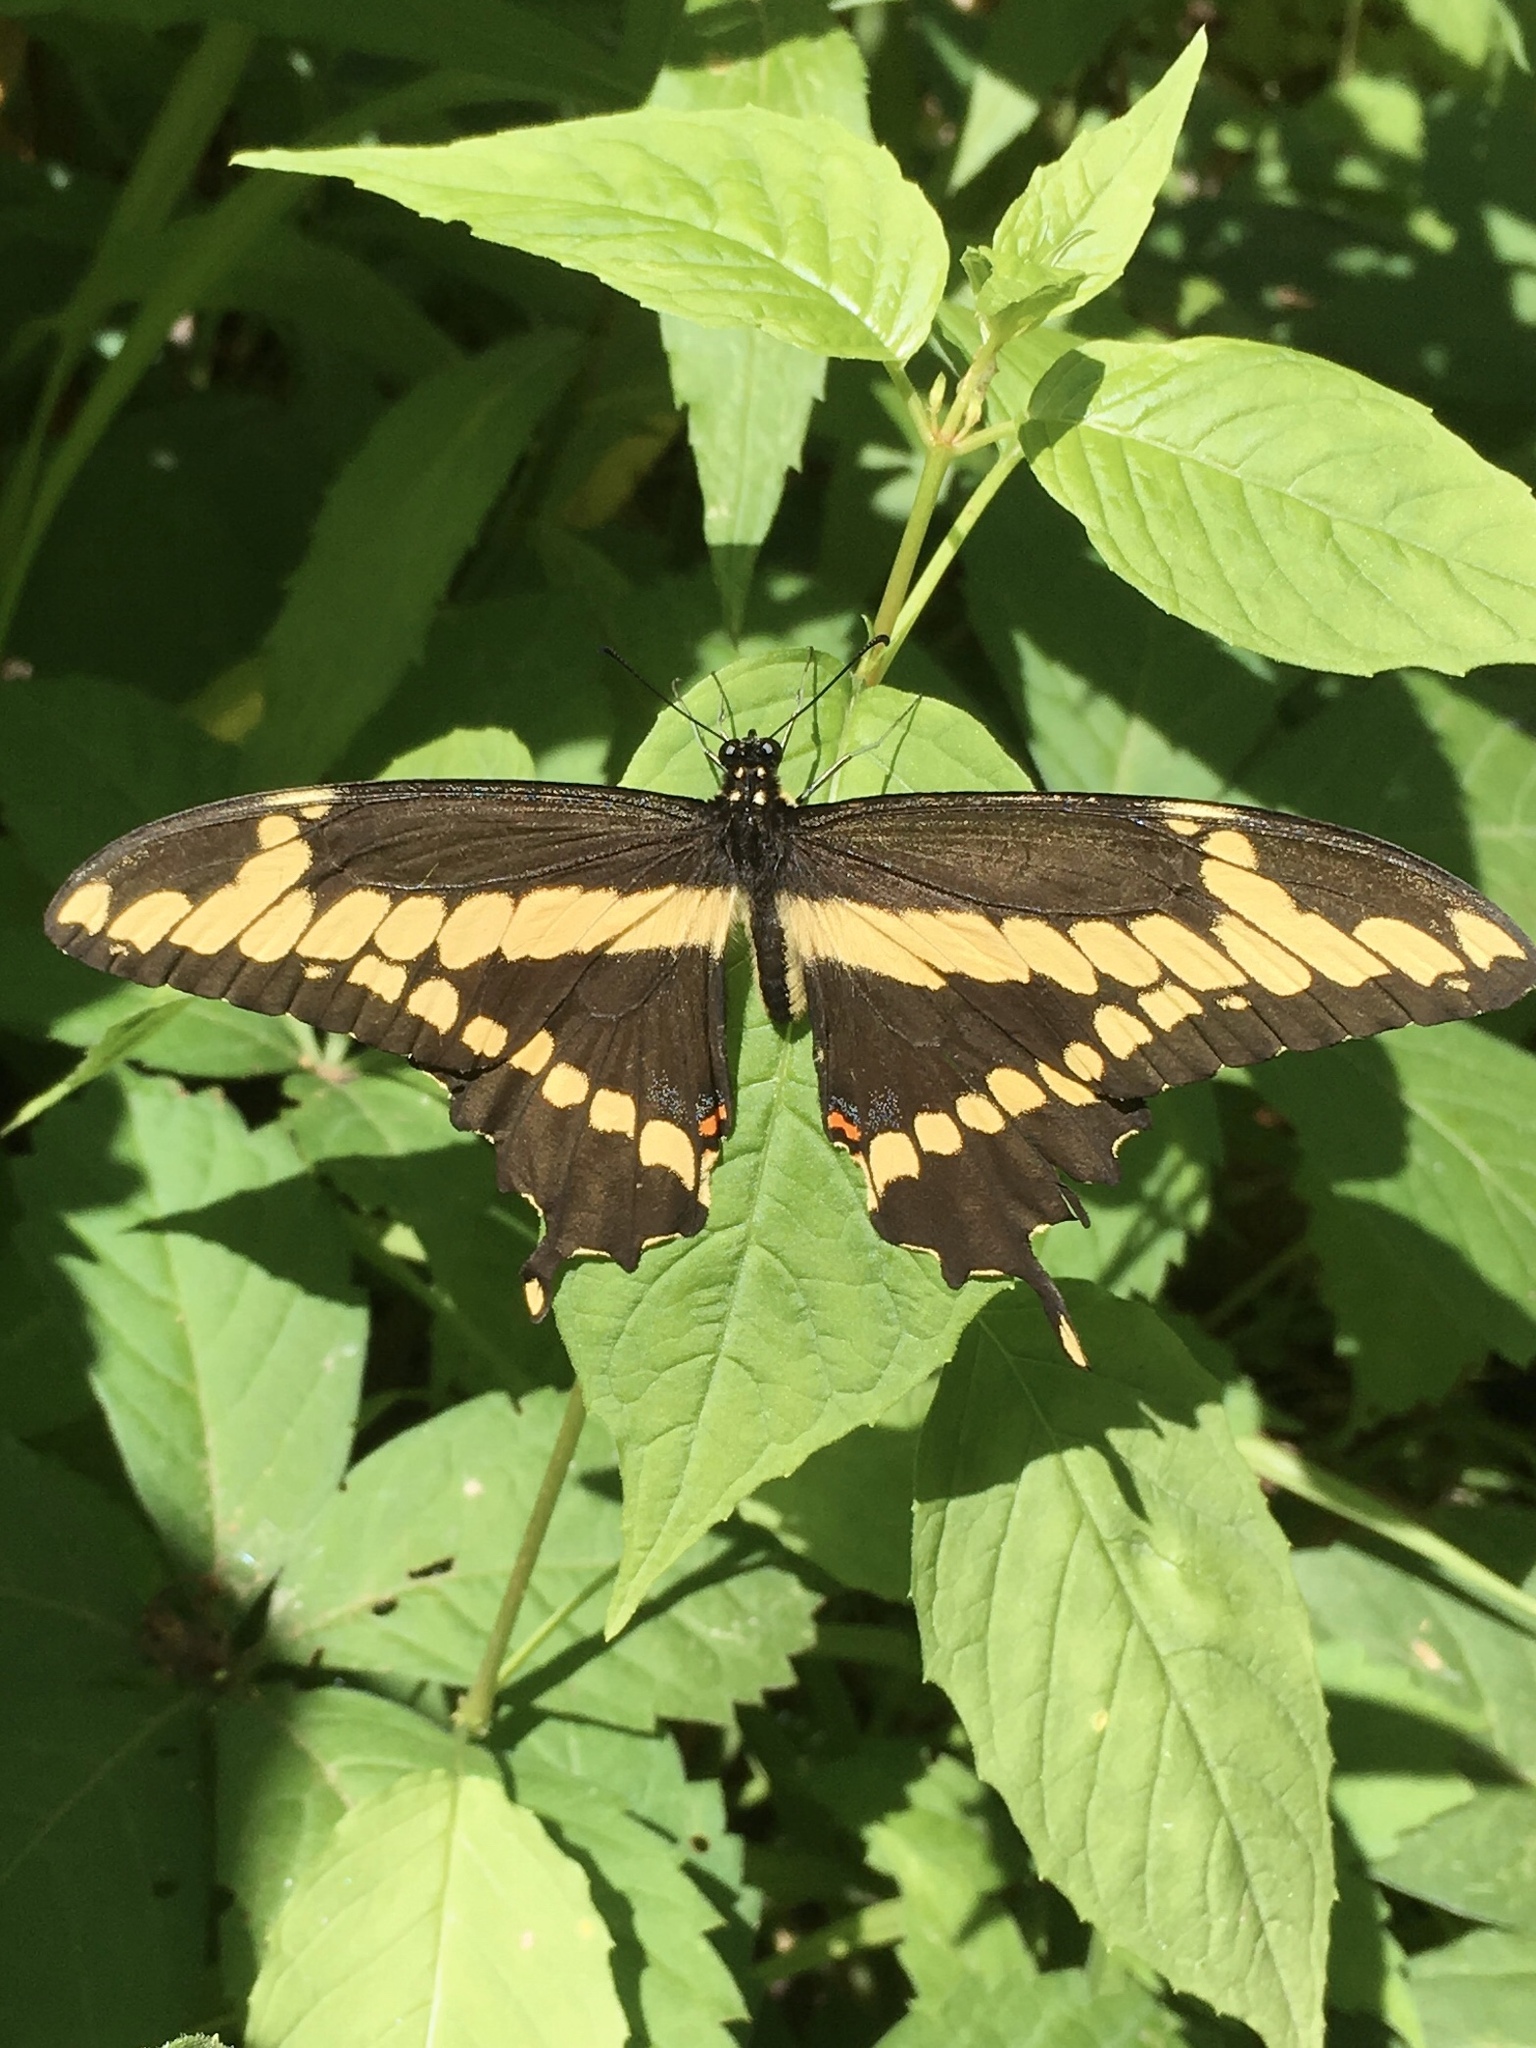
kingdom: Animalia
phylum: Arthropoda
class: Insecta
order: Lepidoptera
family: Papilionidae
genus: Papilio
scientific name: Papilio cresphontes
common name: Giant swallowtail
